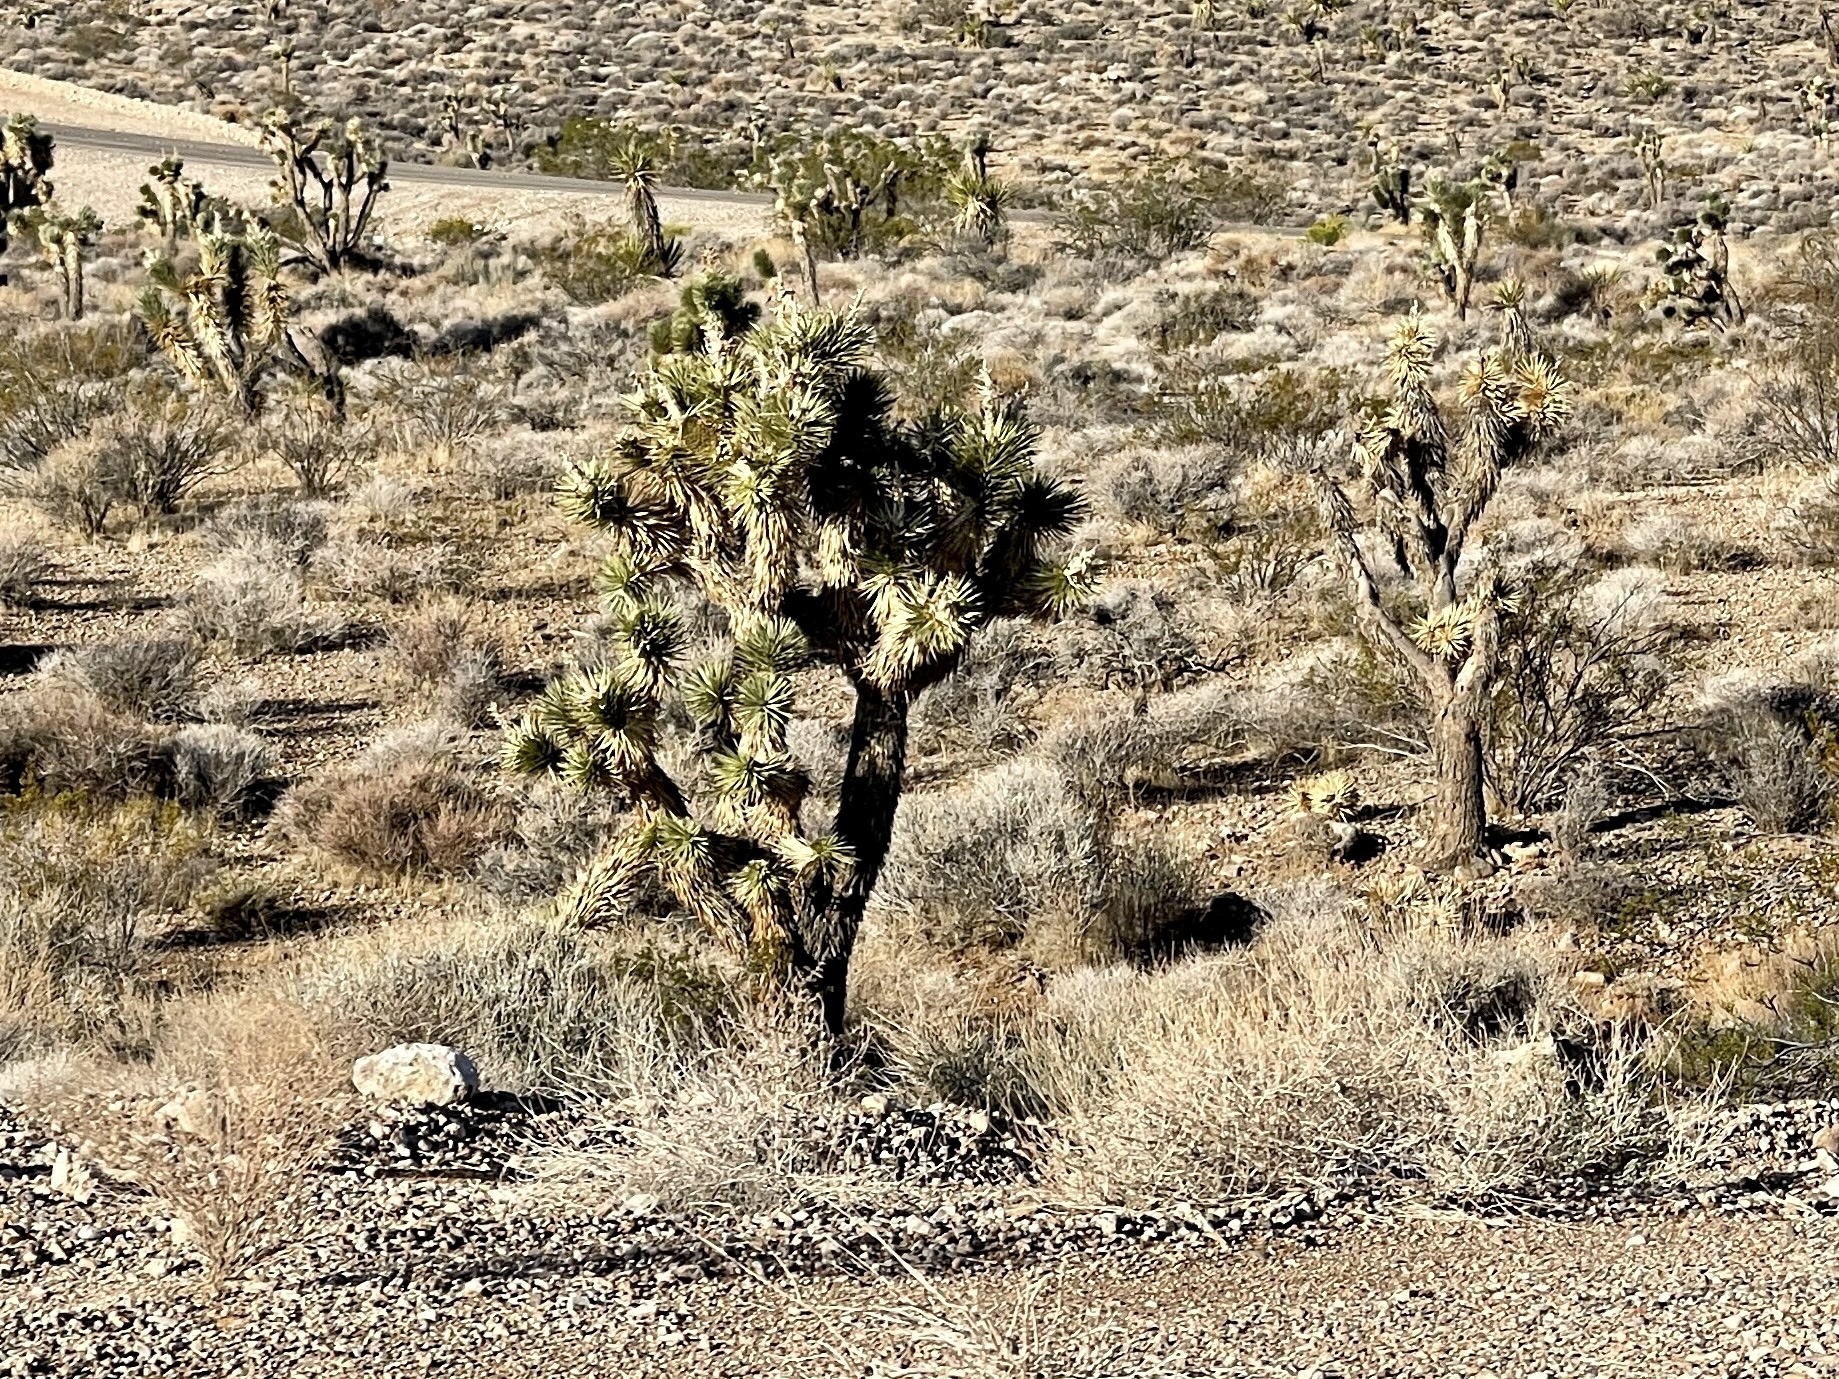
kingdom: Plantae
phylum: Tracheophyta
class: Liliopsida
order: Asparagales
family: Asparagaceae
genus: Yucca
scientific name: Yucca brevifolia
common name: Joshua tree
